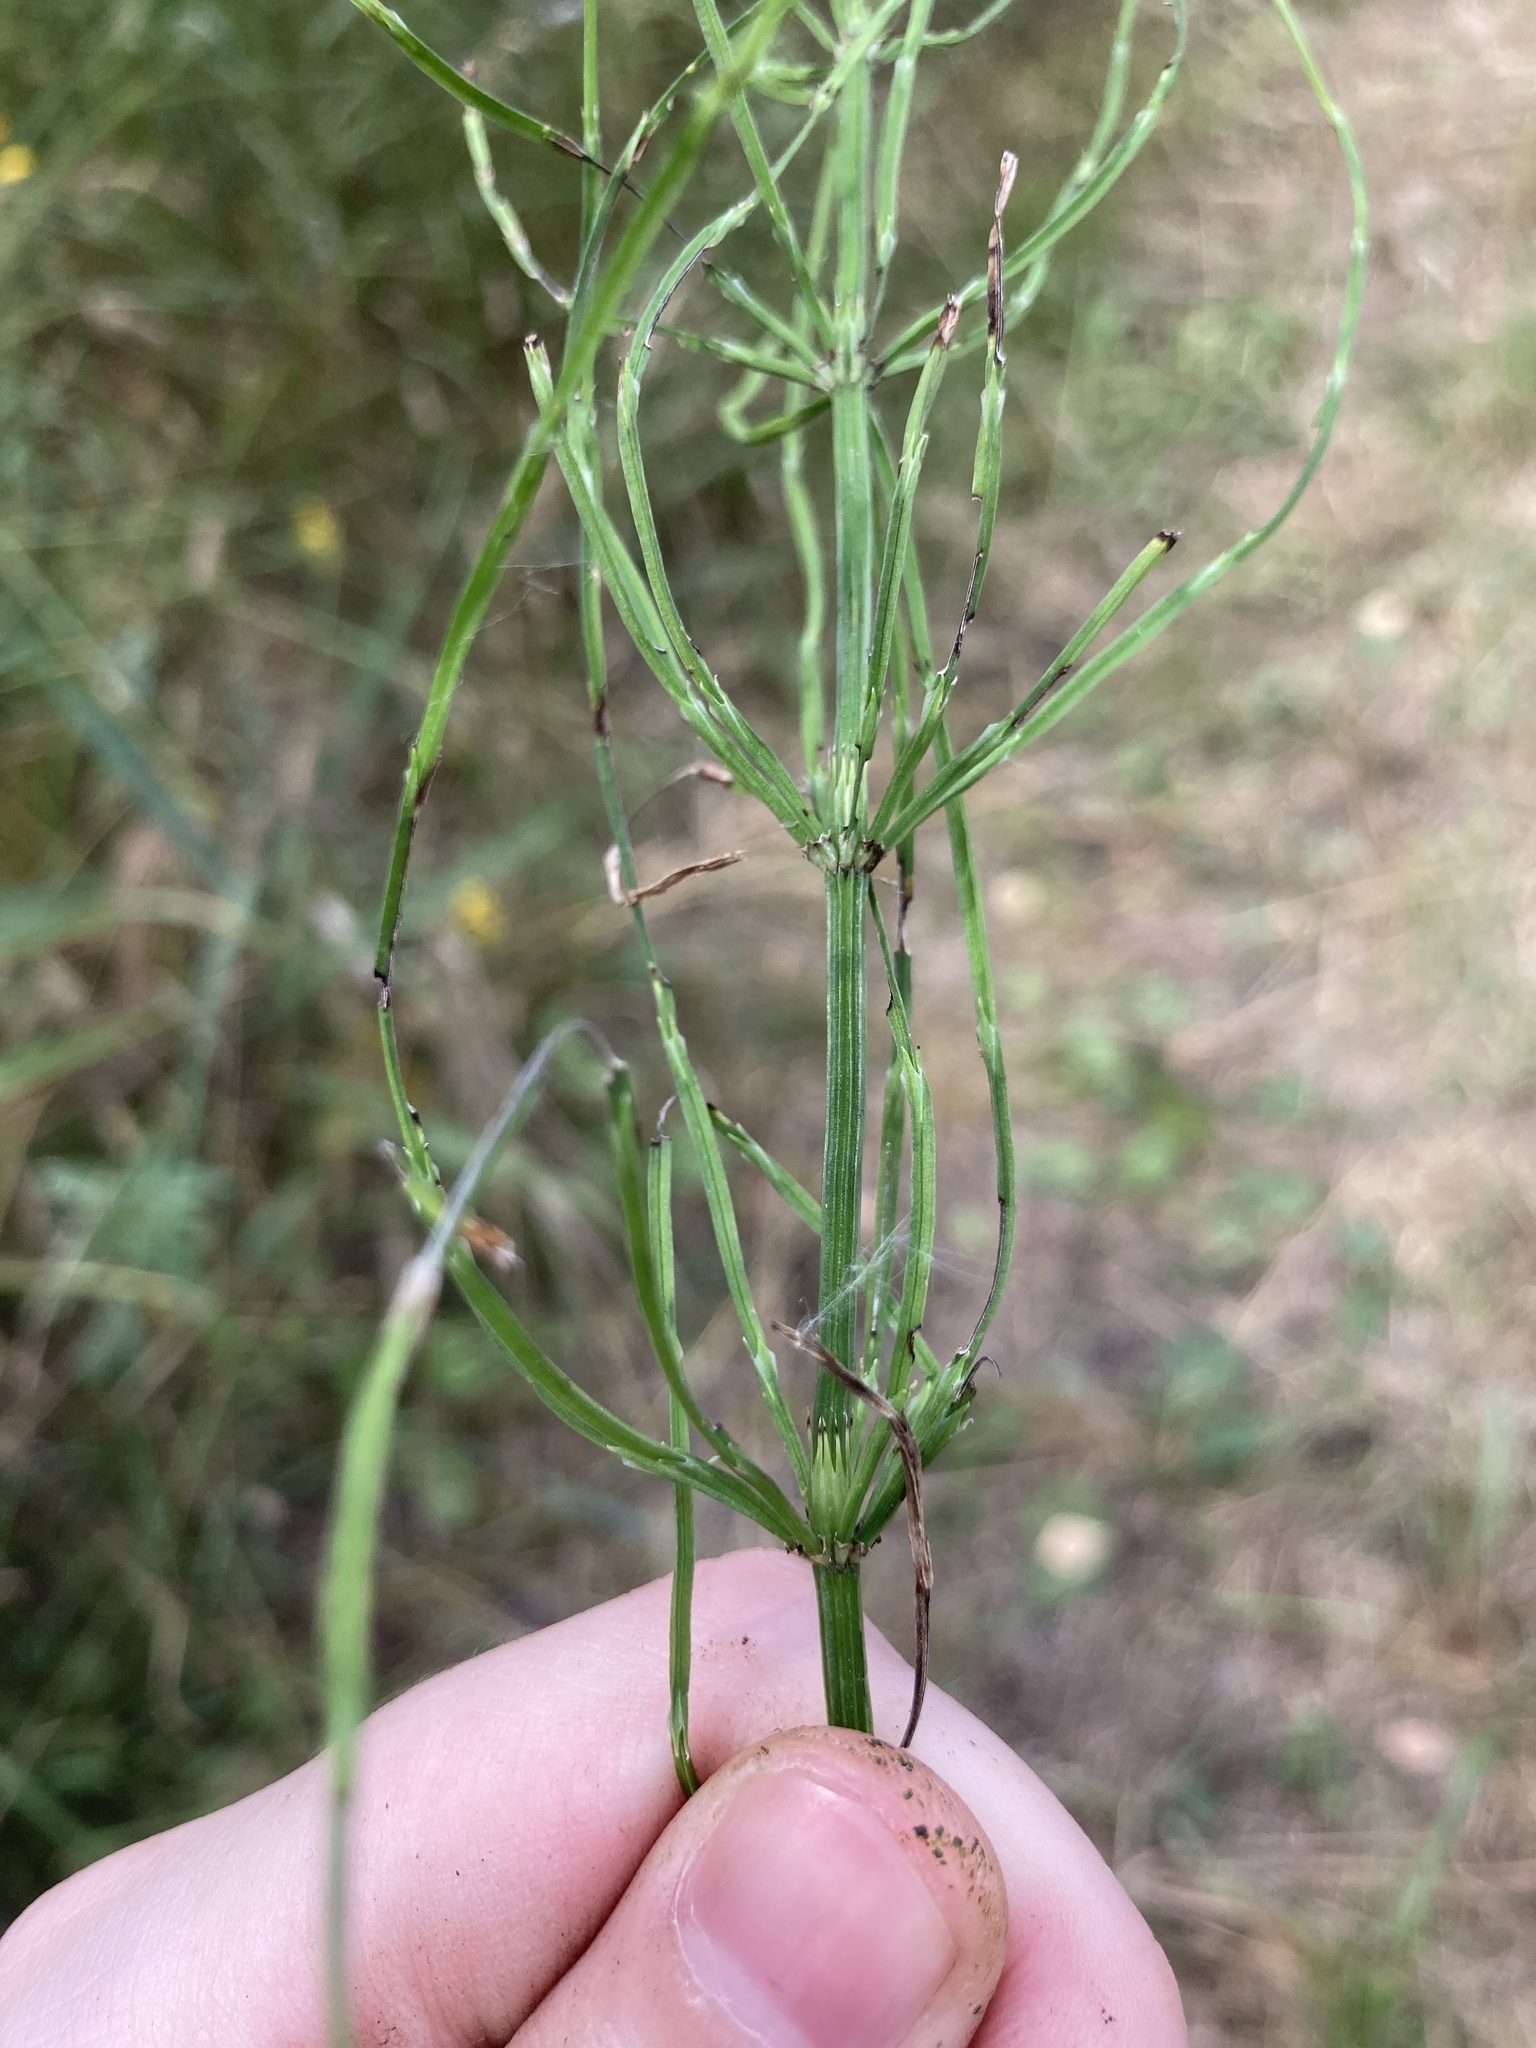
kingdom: Plantae
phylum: Tracheophyta
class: Polypodiopsida
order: Equisetales
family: Equisetaceae
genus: Equisetum
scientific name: Equisetum arvense
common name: Field horsetail
